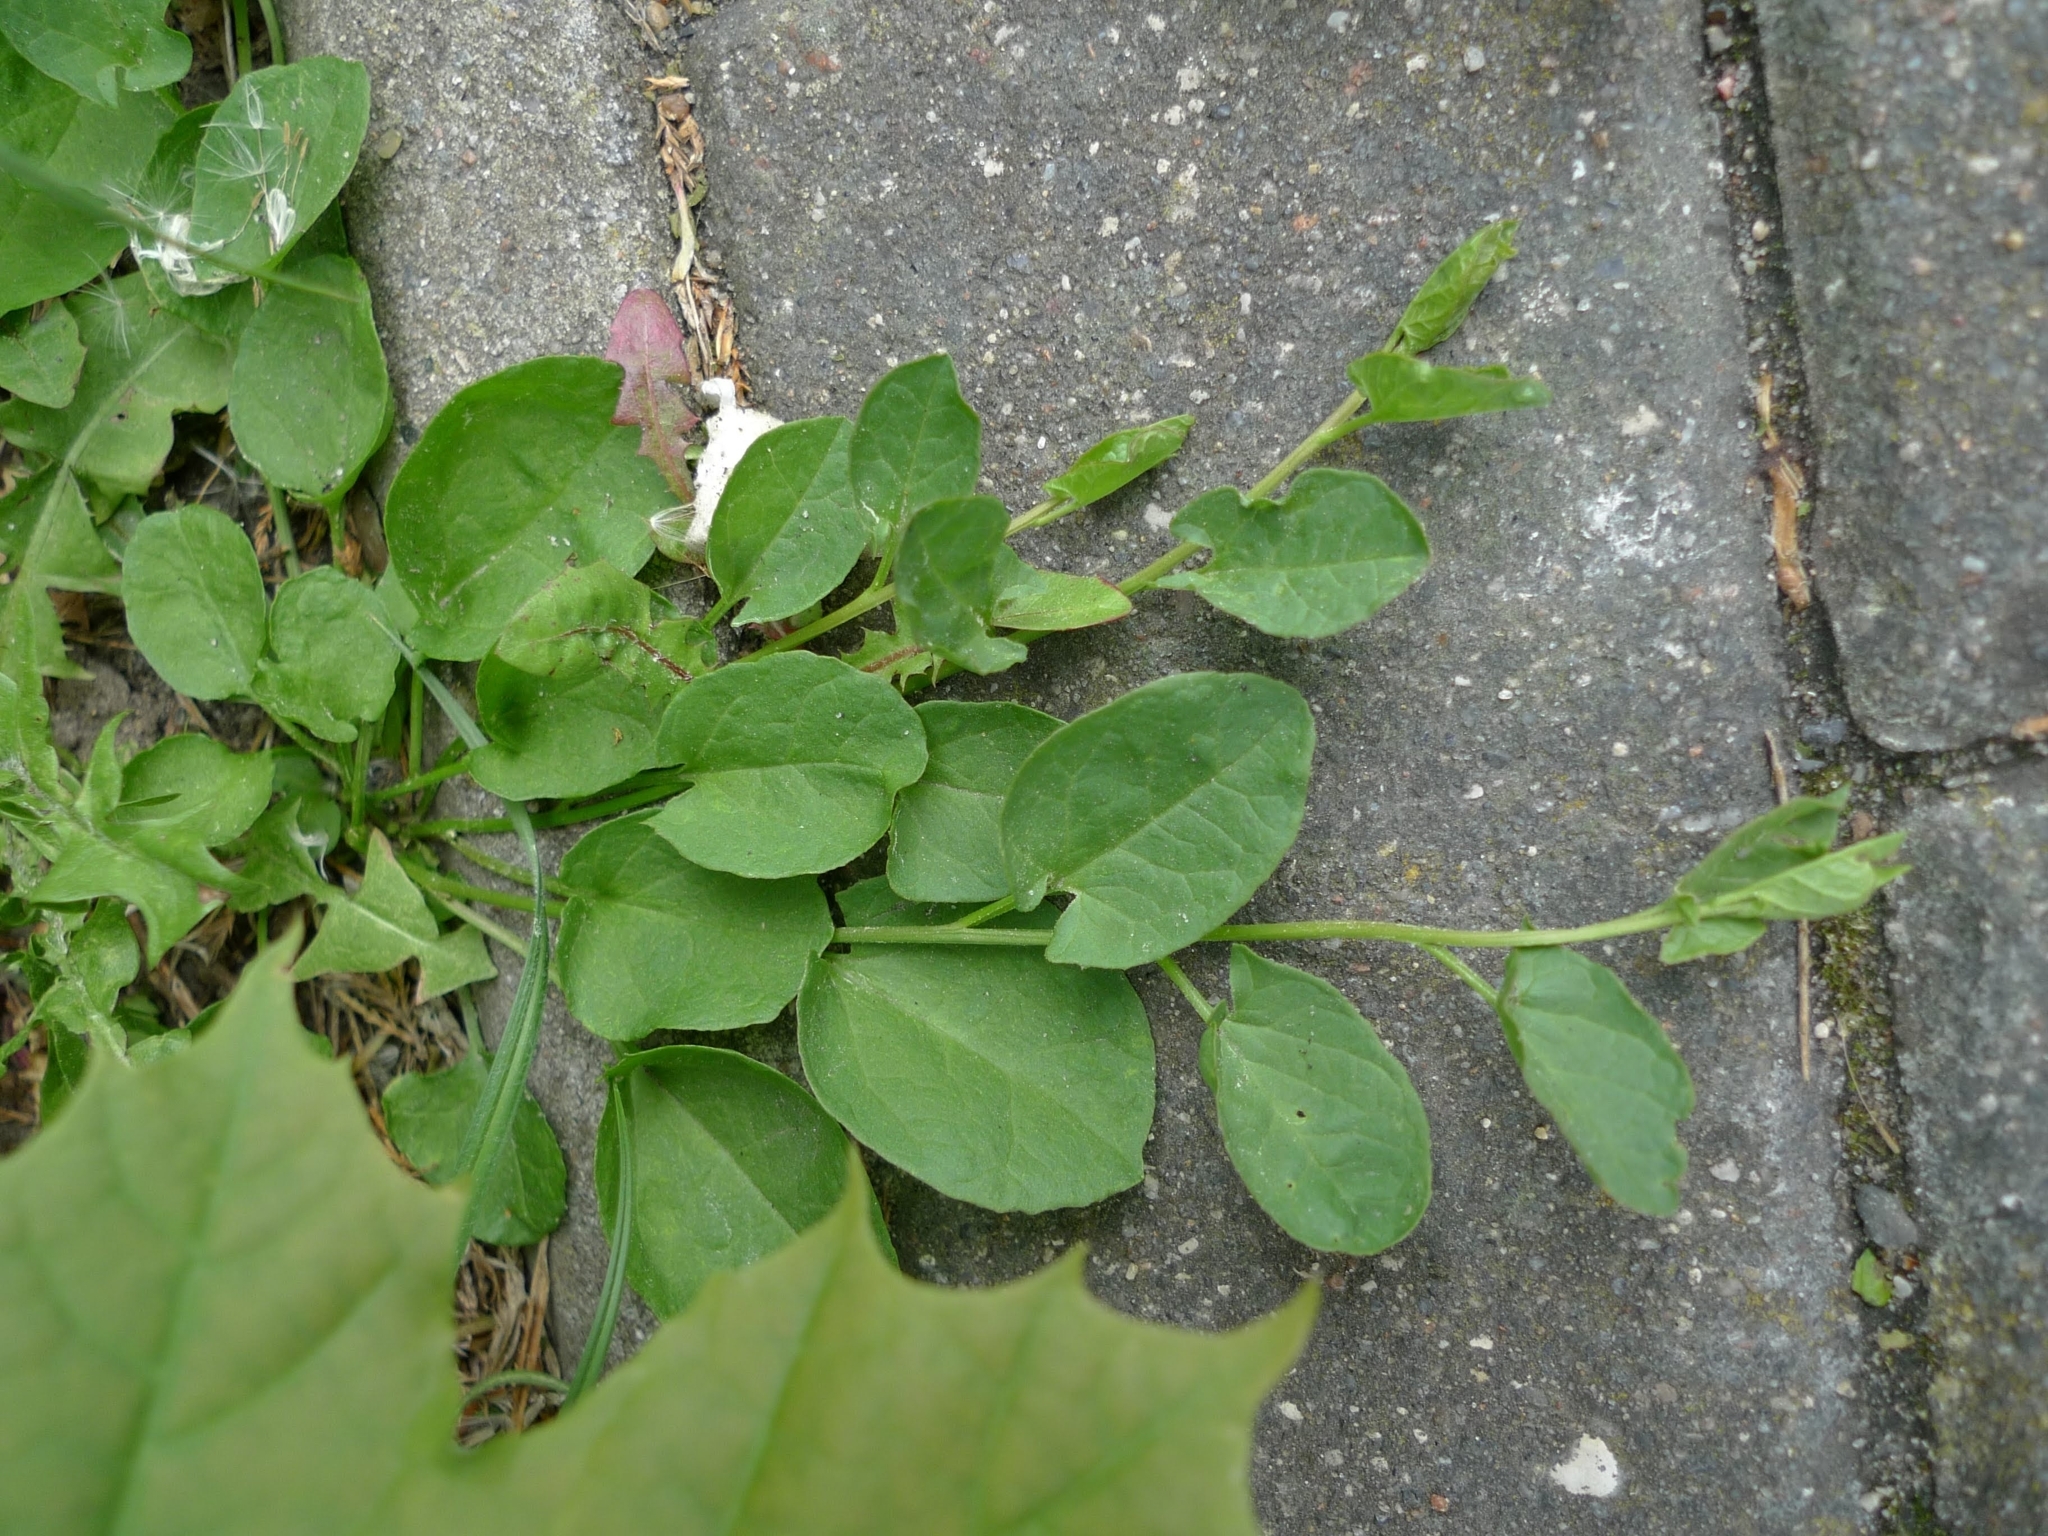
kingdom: Plantae
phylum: Tracheophyta
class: Magnoliopsida
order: Solanales
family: Convolvulaceae
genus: Convolvulus
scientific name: Convolvulus arvensis
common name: Field bindweed
